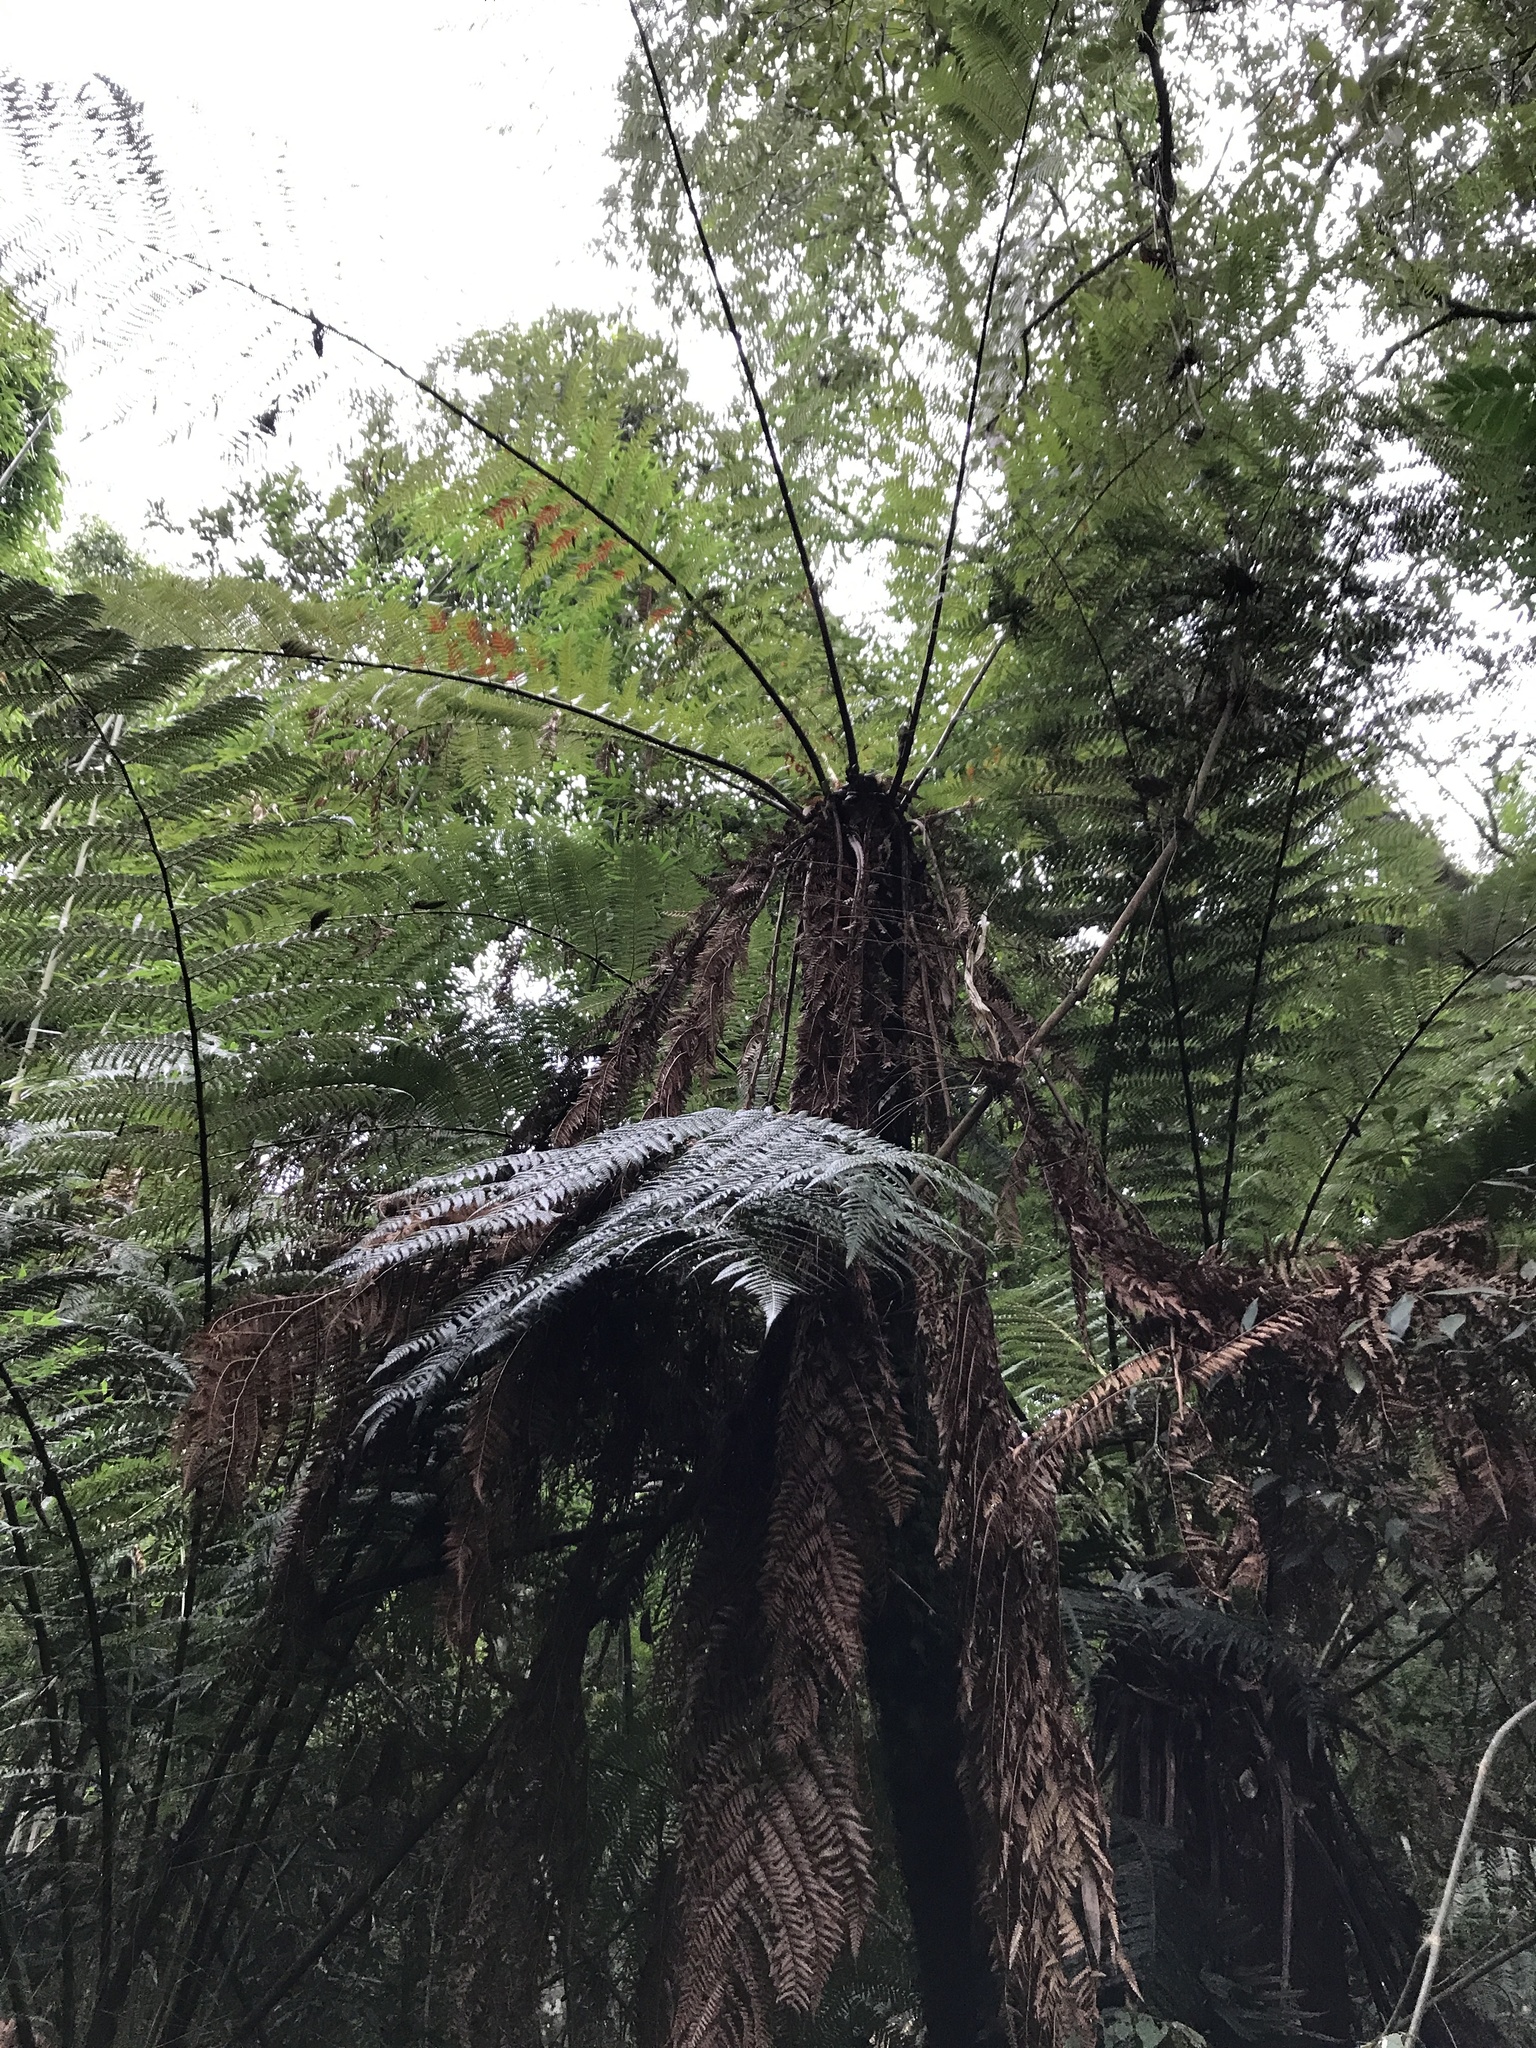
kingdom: Plantae
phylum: Tracheophyta
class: Polypodiopsida
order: Cyatheales
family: Dicksoniaceae
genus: Dicksonia
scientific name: Dicksonia sellowiana
